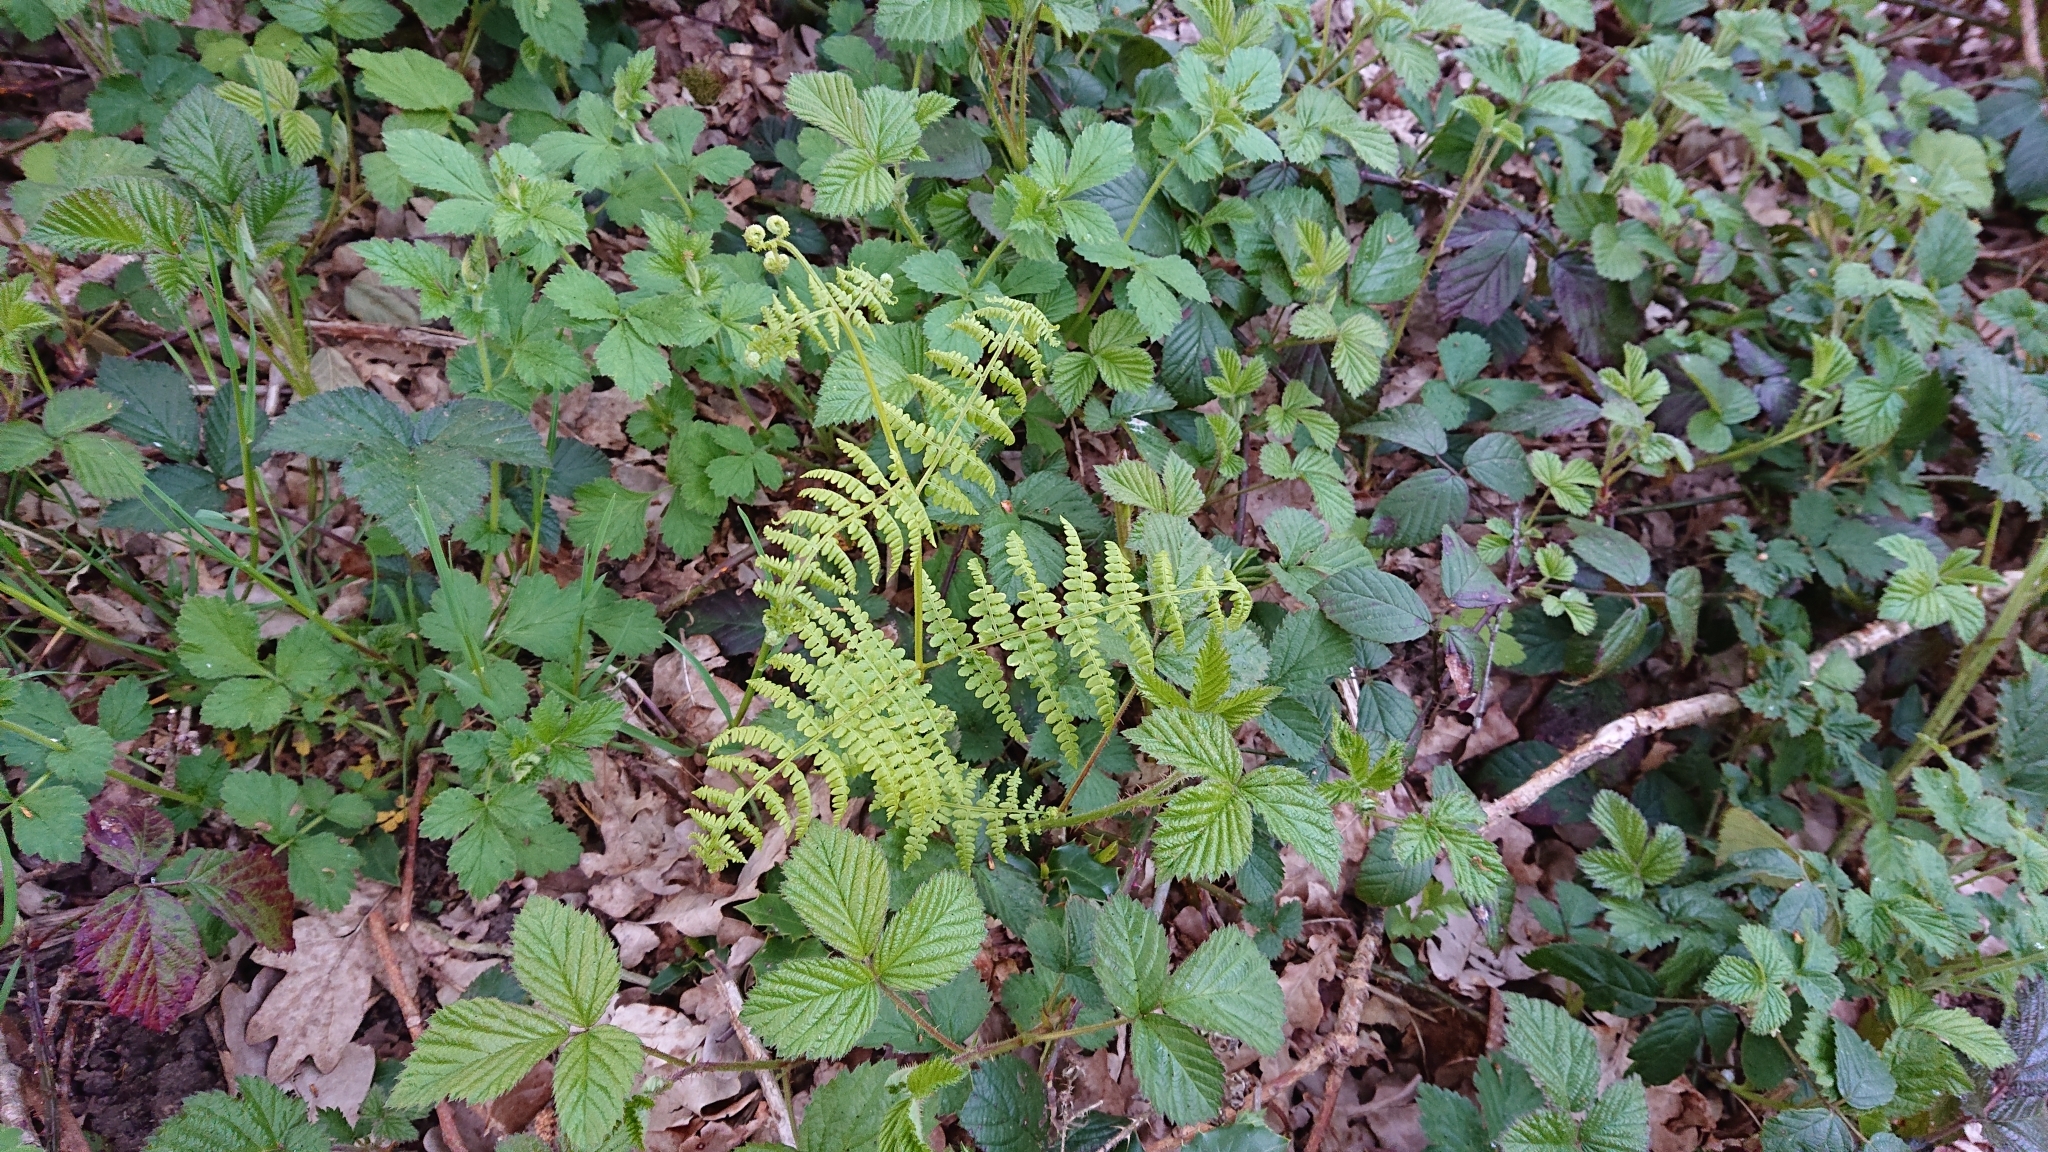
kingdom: Plantae
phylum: Tracheophyta
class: Polypodiopsida
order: Polypodiales
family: Dennstaedtiaceae
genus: Pteridium
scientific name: Pteridium aquilinum
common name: Bracken
